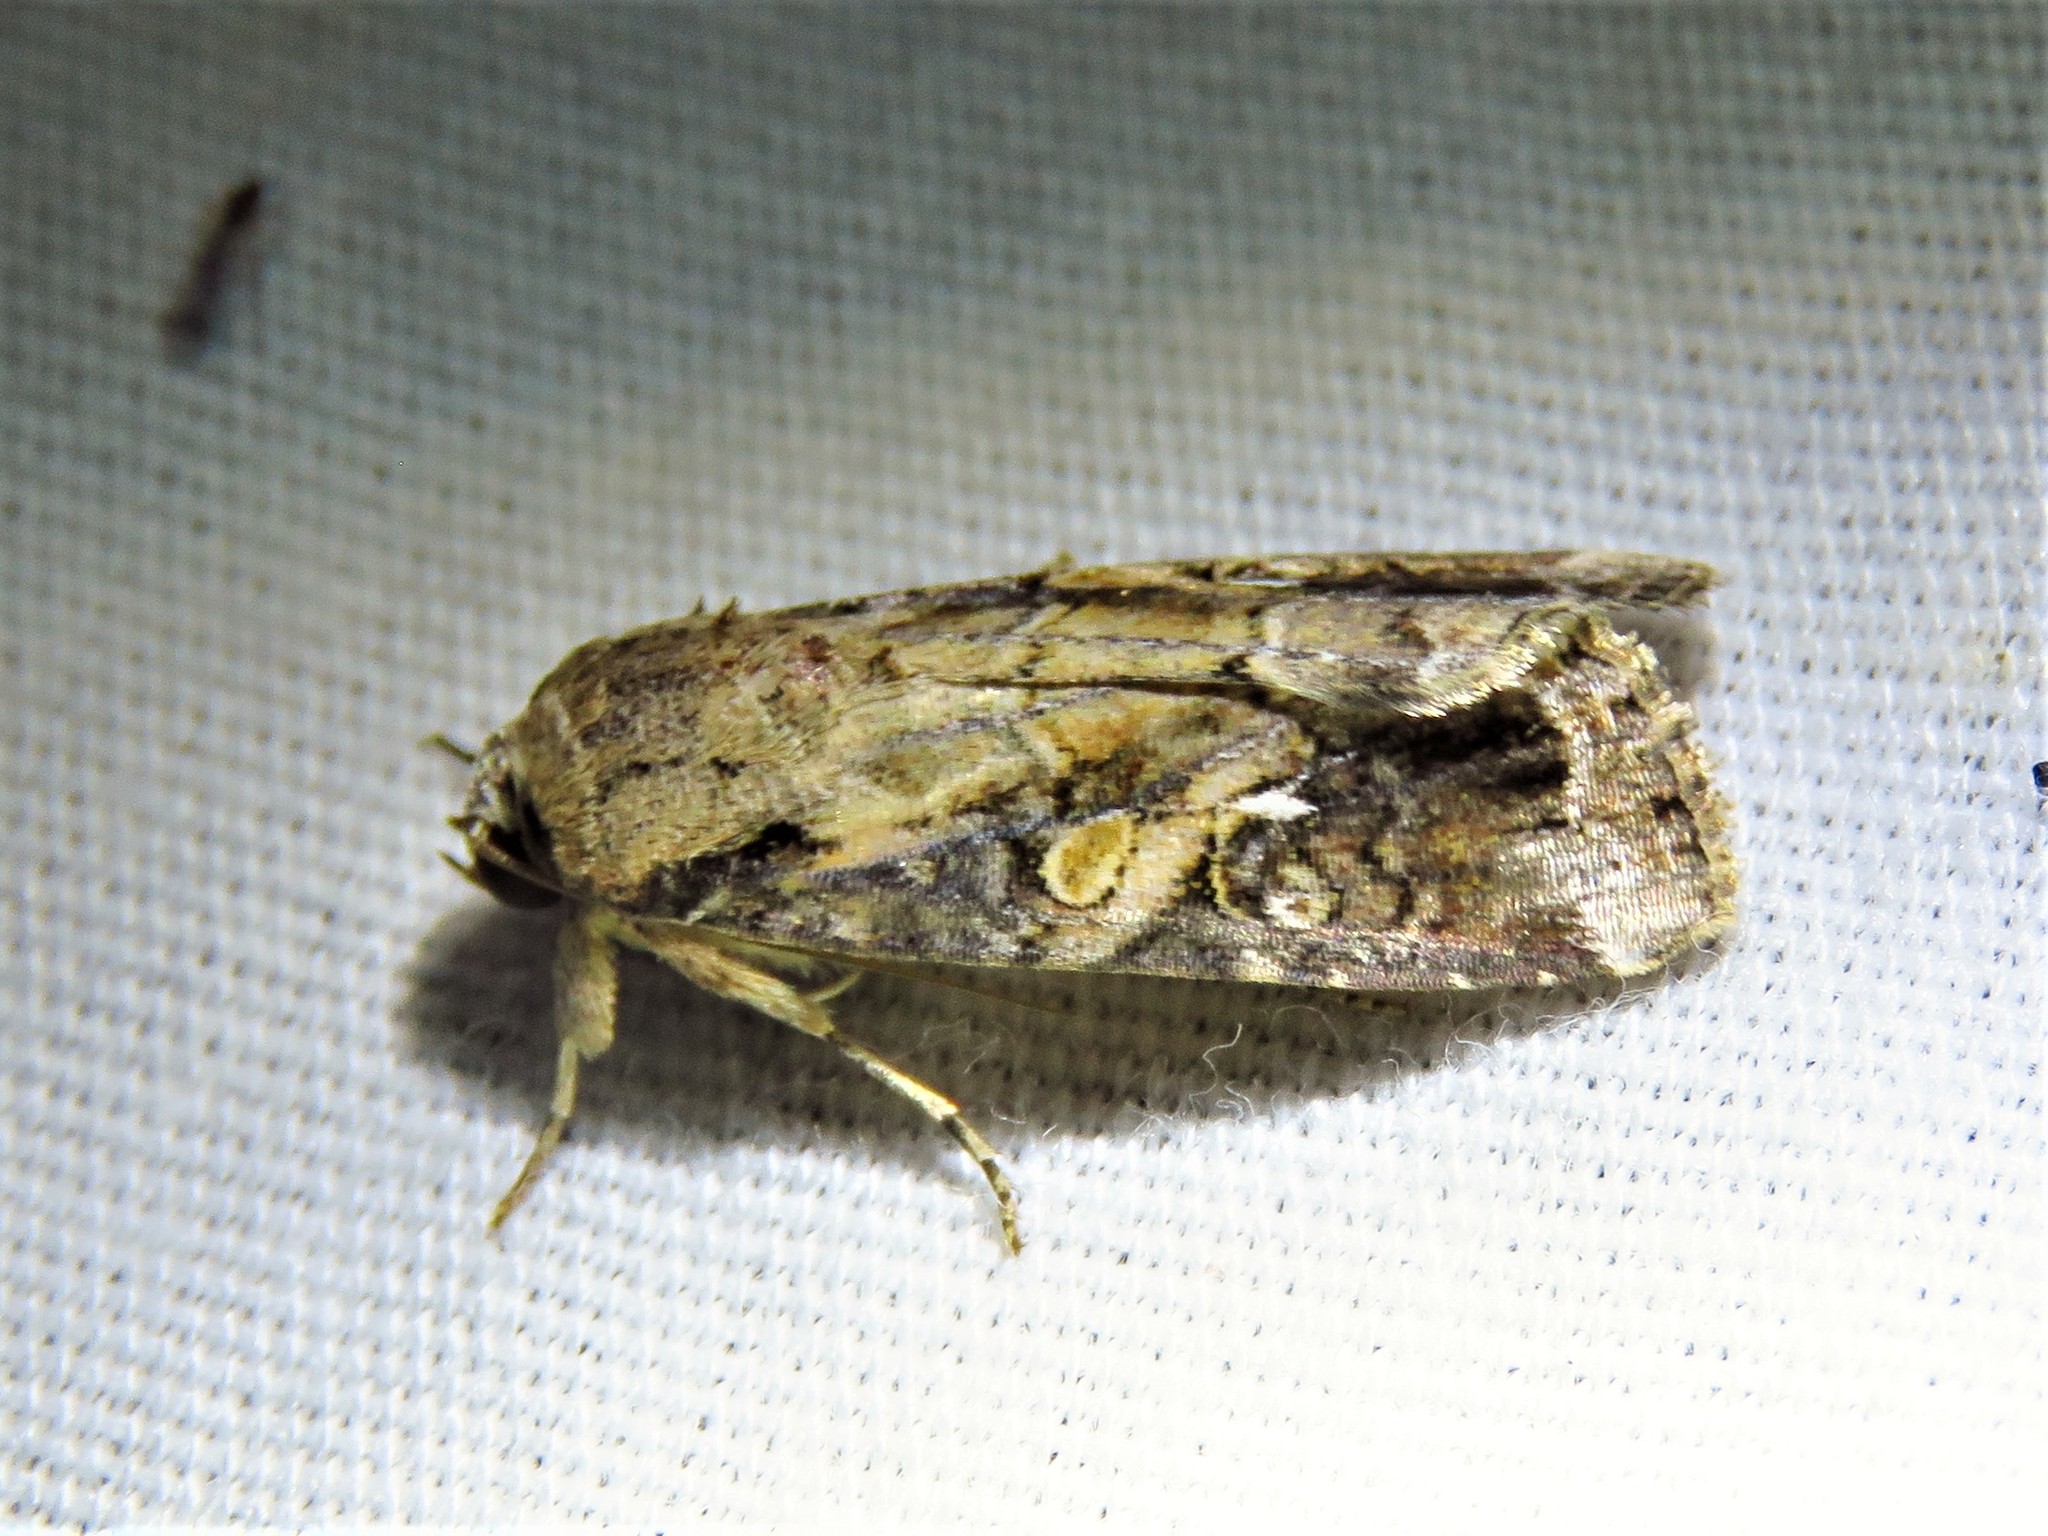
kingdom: Animalia
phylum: Arthropoda
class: Insecta
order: Lepidoptera
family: Noctuidae
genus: Spodoptera
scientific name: Spodoptera frugiperda
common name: Fall armyworm
